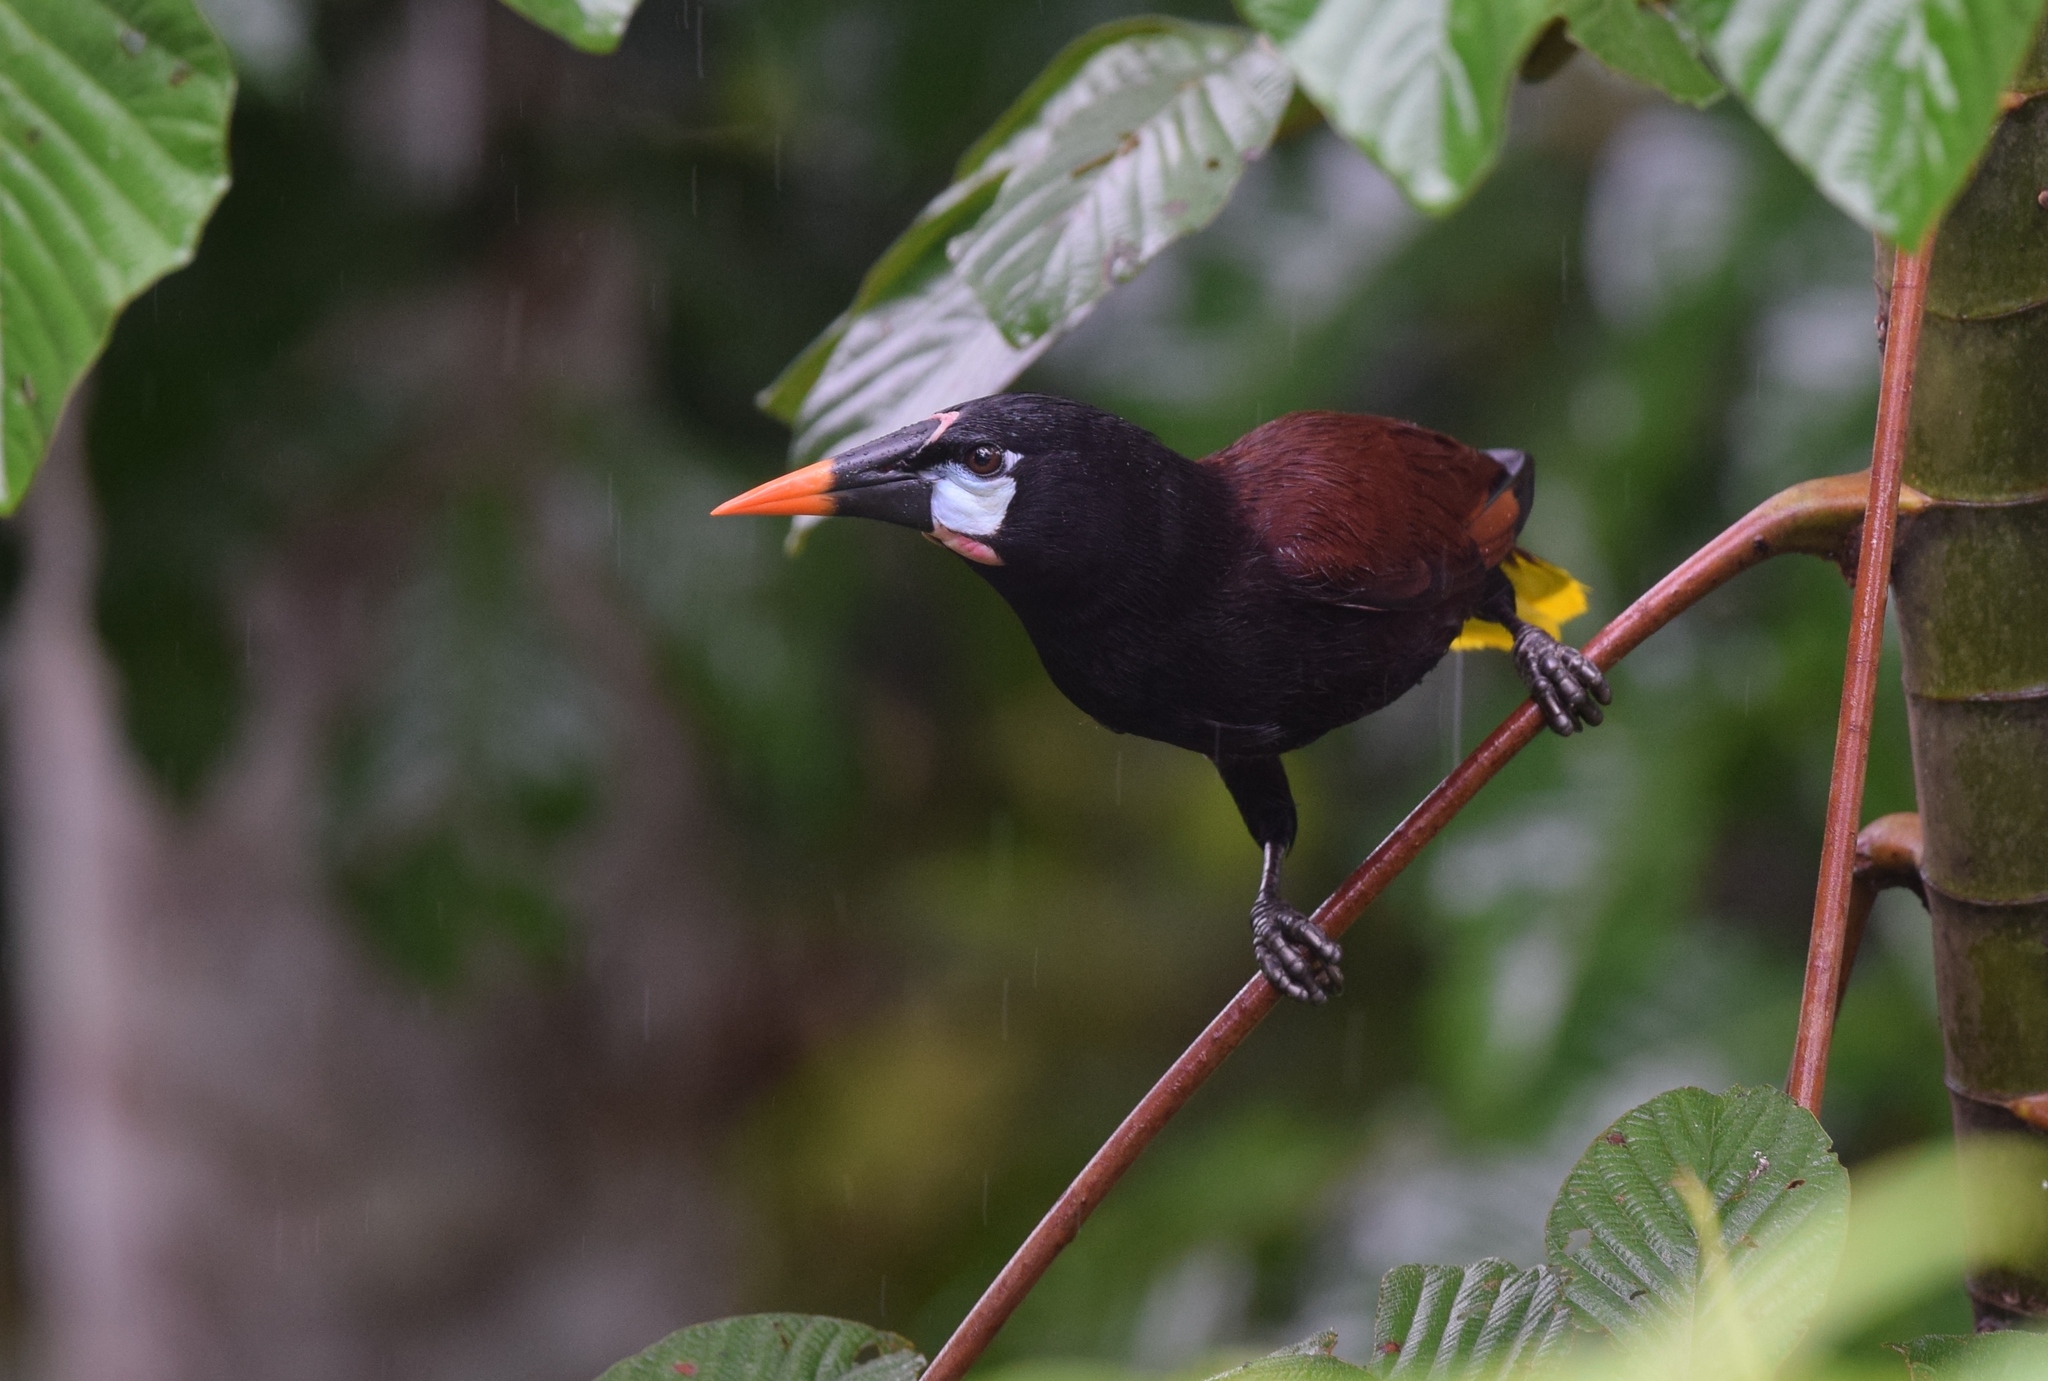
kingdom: Animalia
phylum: Chordata
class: Aves
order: Passeriformes
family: Icteridae
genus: Psarocolius
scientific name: Psarocolius montezuma
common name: Montezuma oropendola
